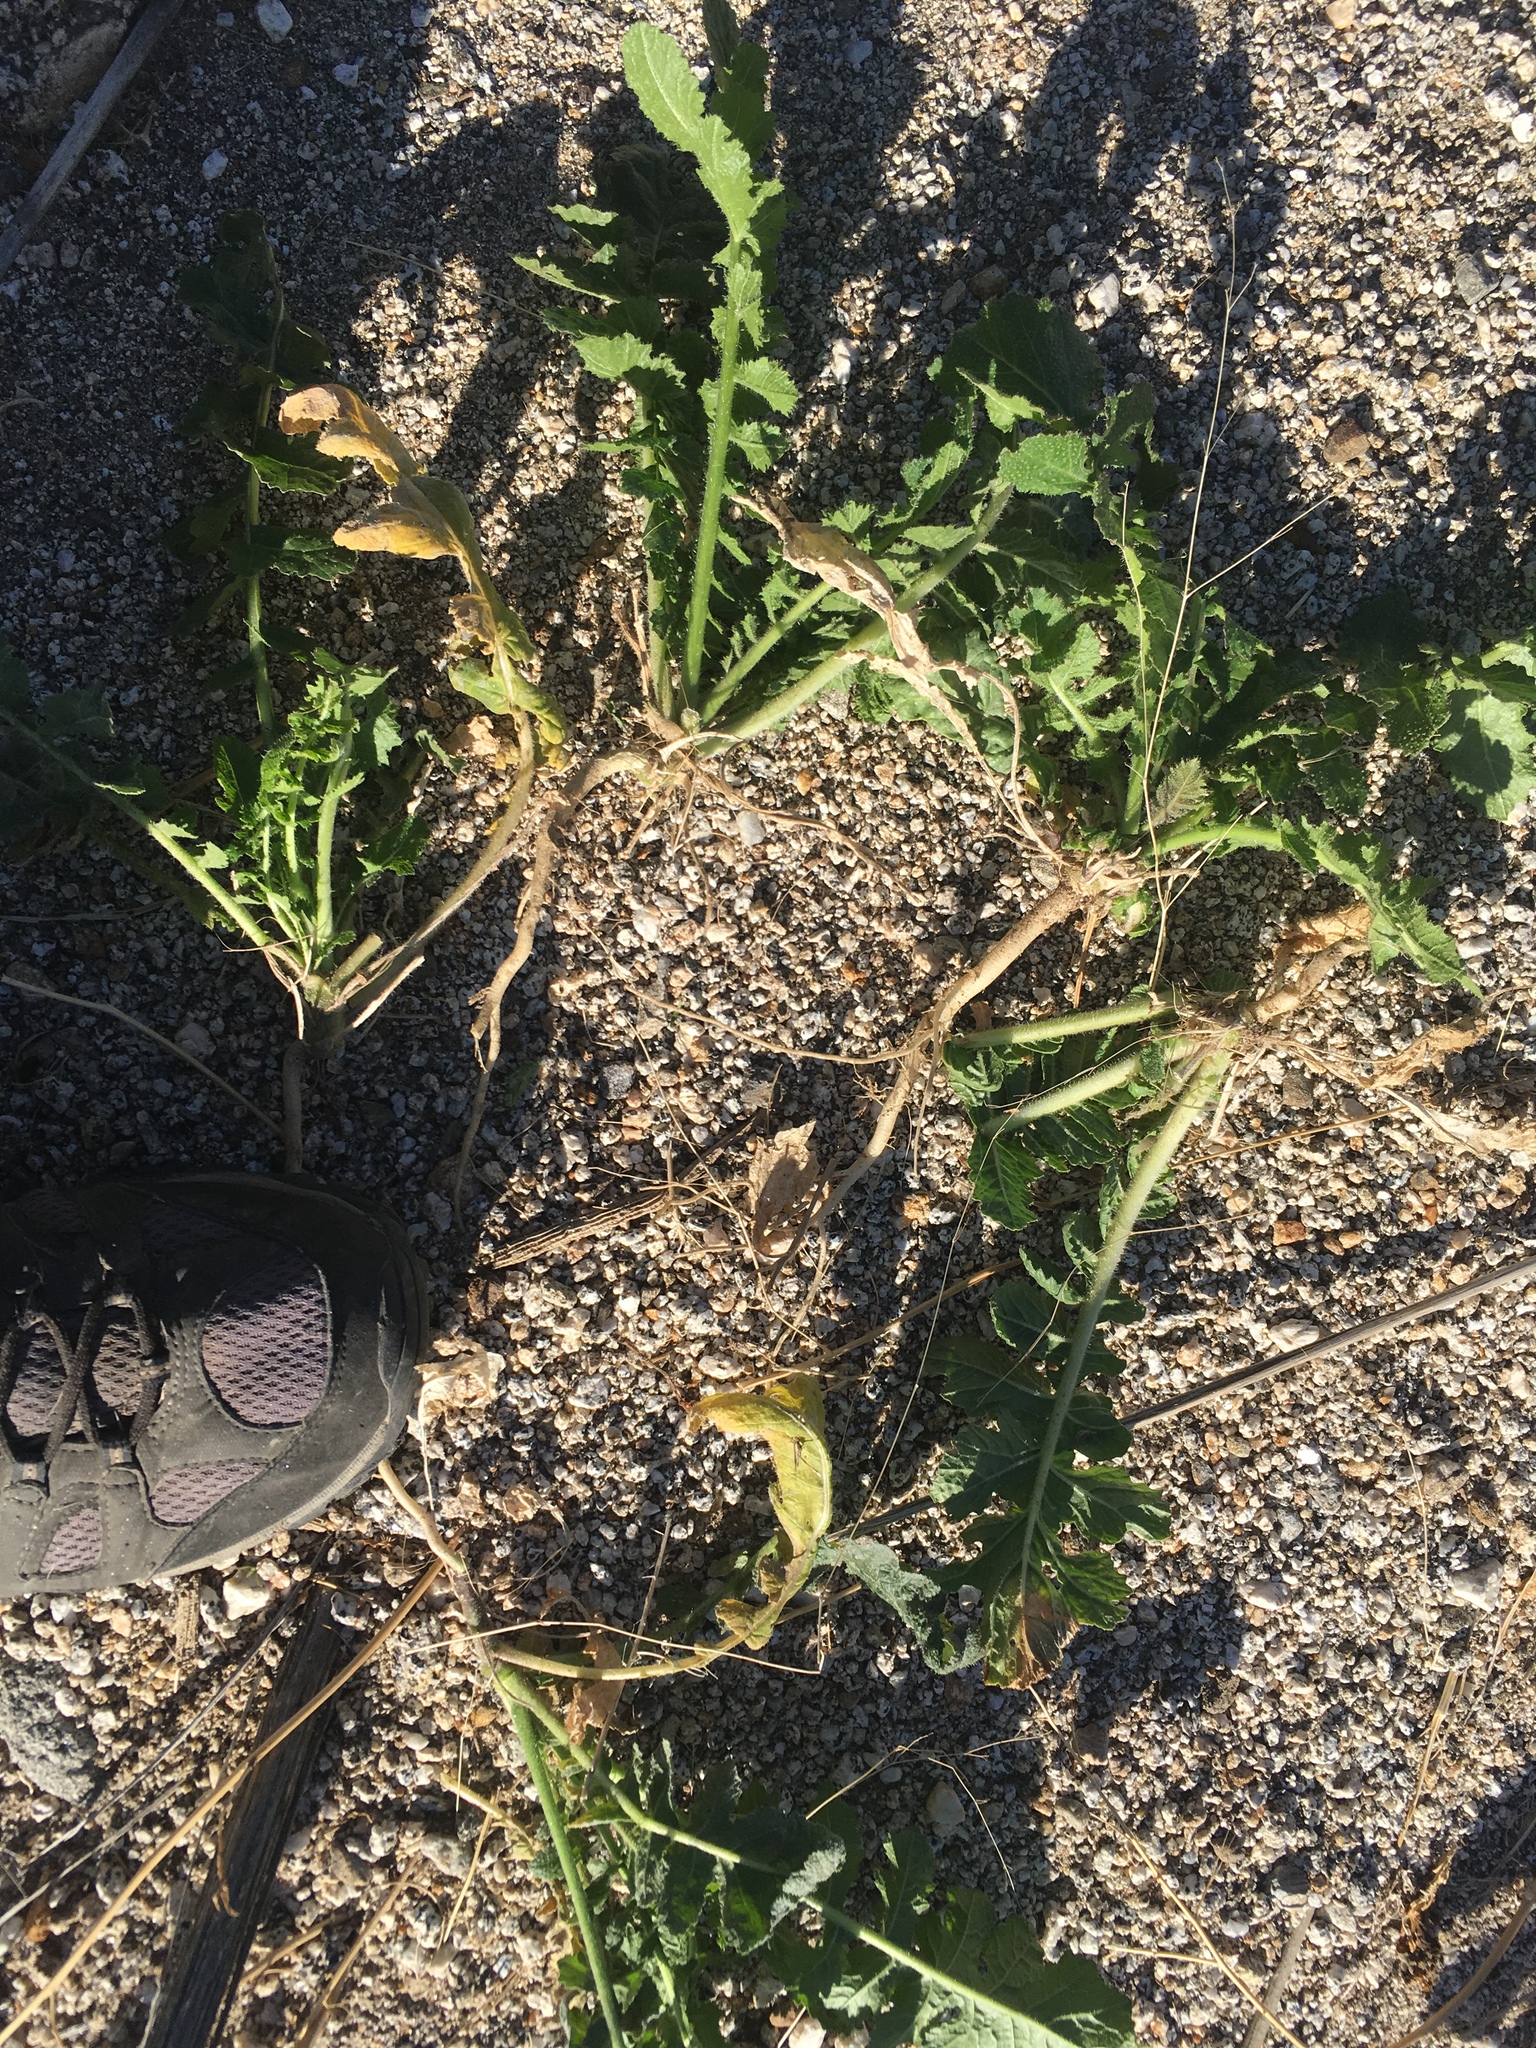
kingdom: Plantae
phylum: Tracheophyta
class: Magnoliopsida
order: Brassicales
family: Brassicaceae
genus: Brassica
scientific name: Brassica tournefortii
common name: Pale cabbage
